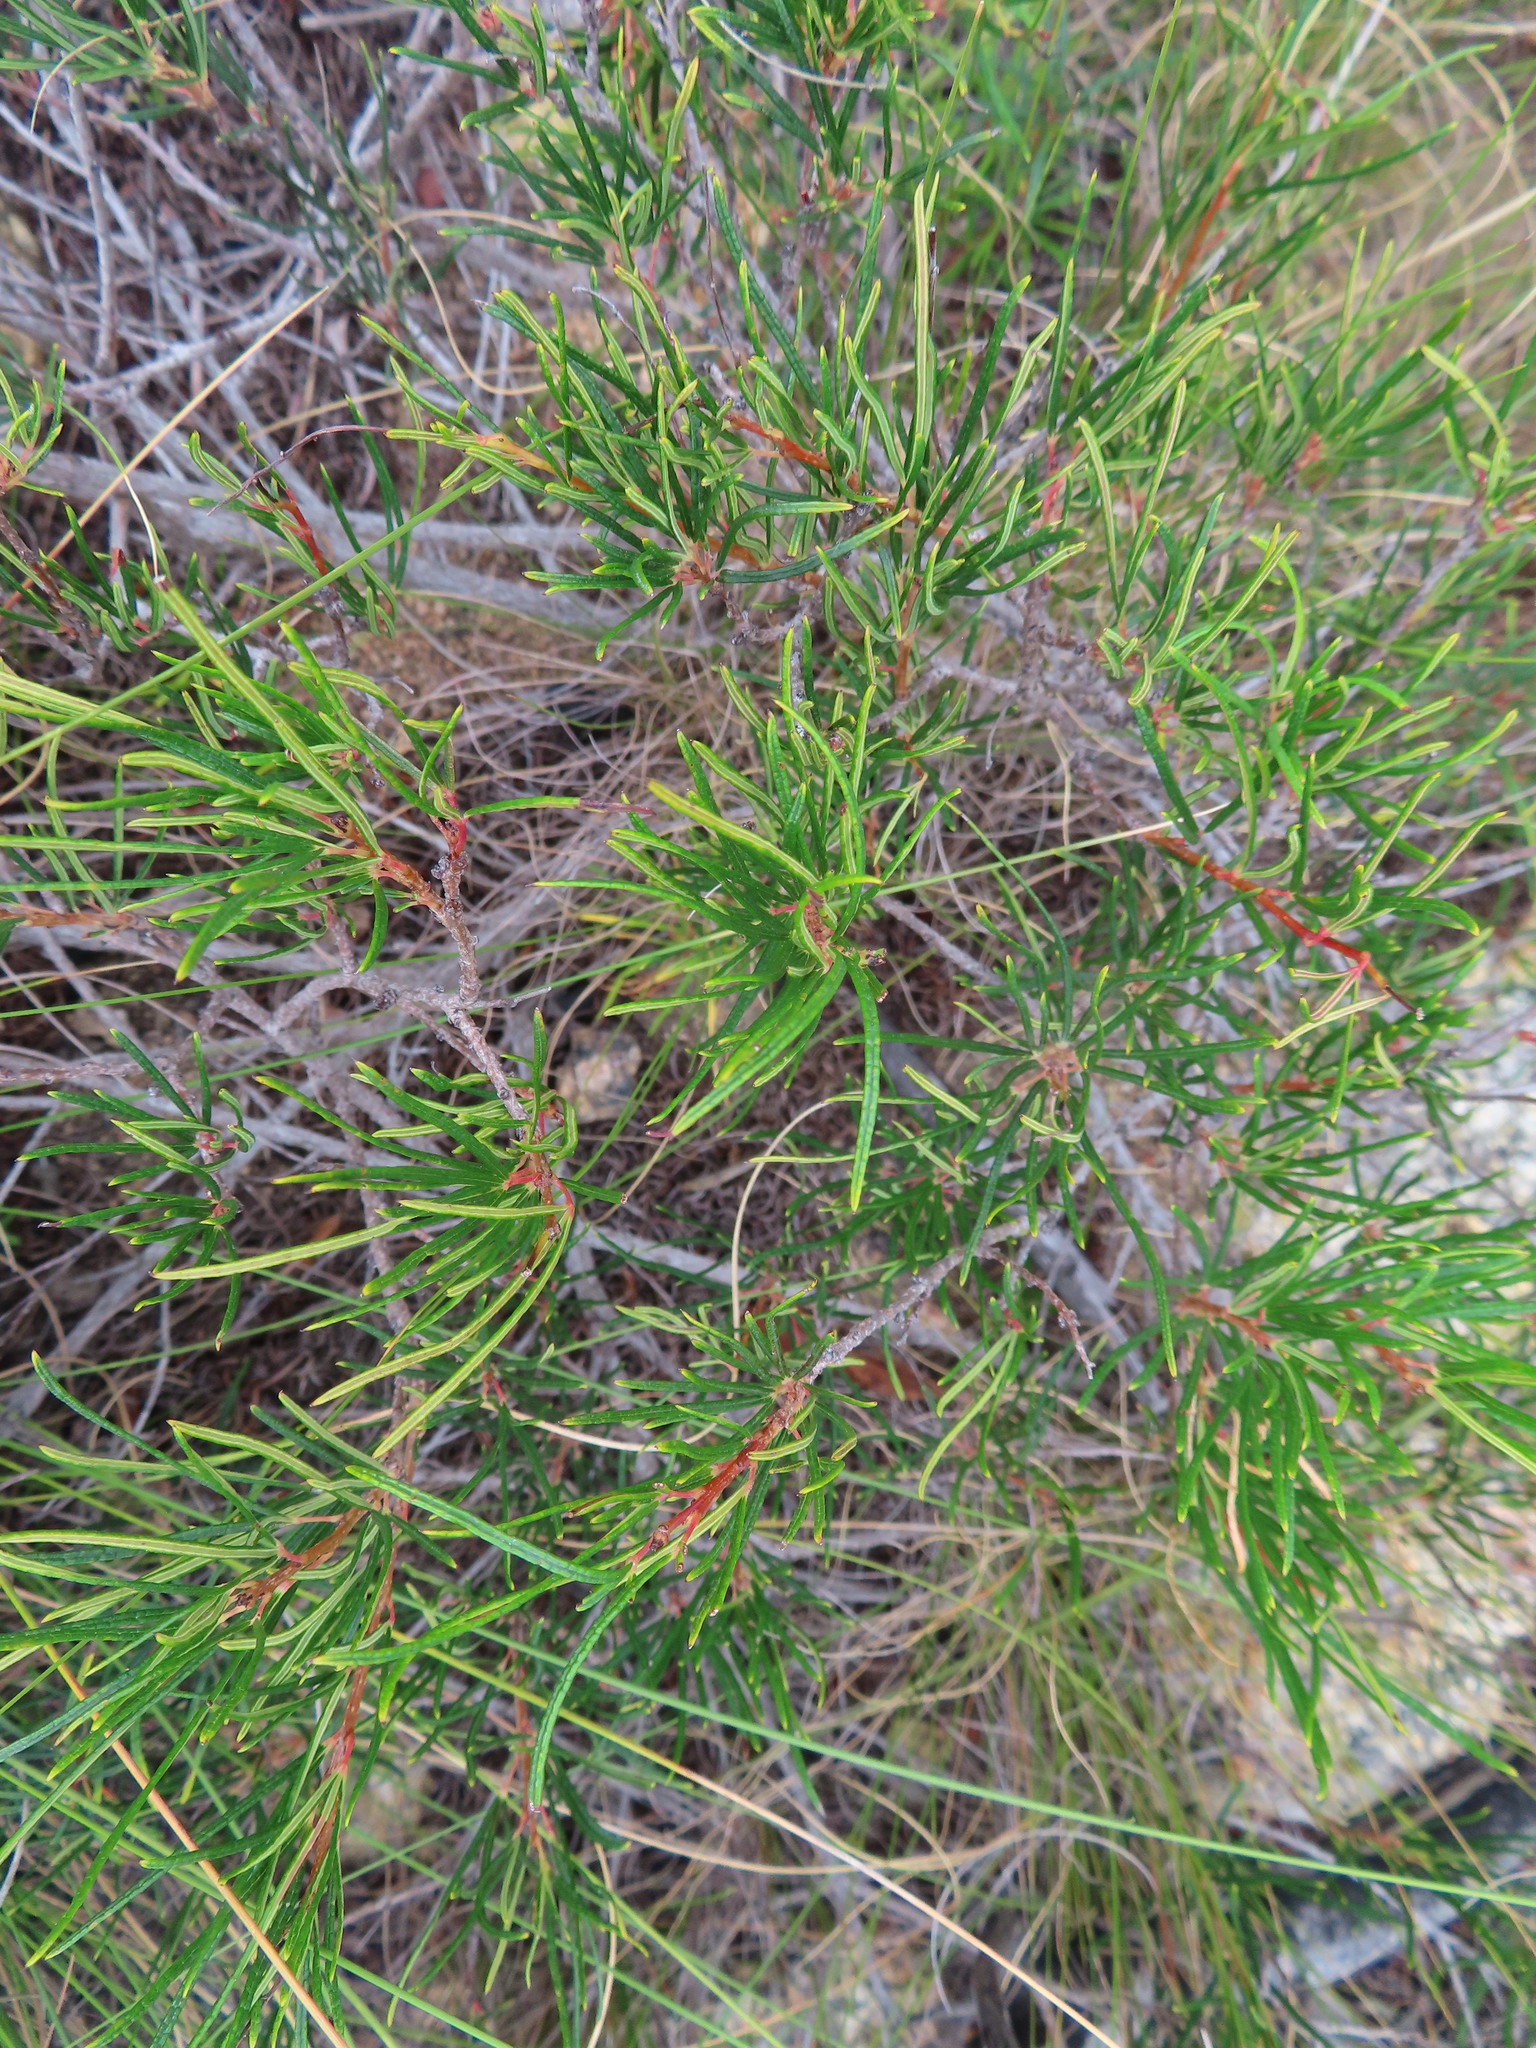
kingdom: Plantae
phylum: Tracheophyta
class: Magnoliopsida
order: Sapindales
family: Anacardiaceae
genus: Searsia
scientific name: Searsia rosmarinifolia
